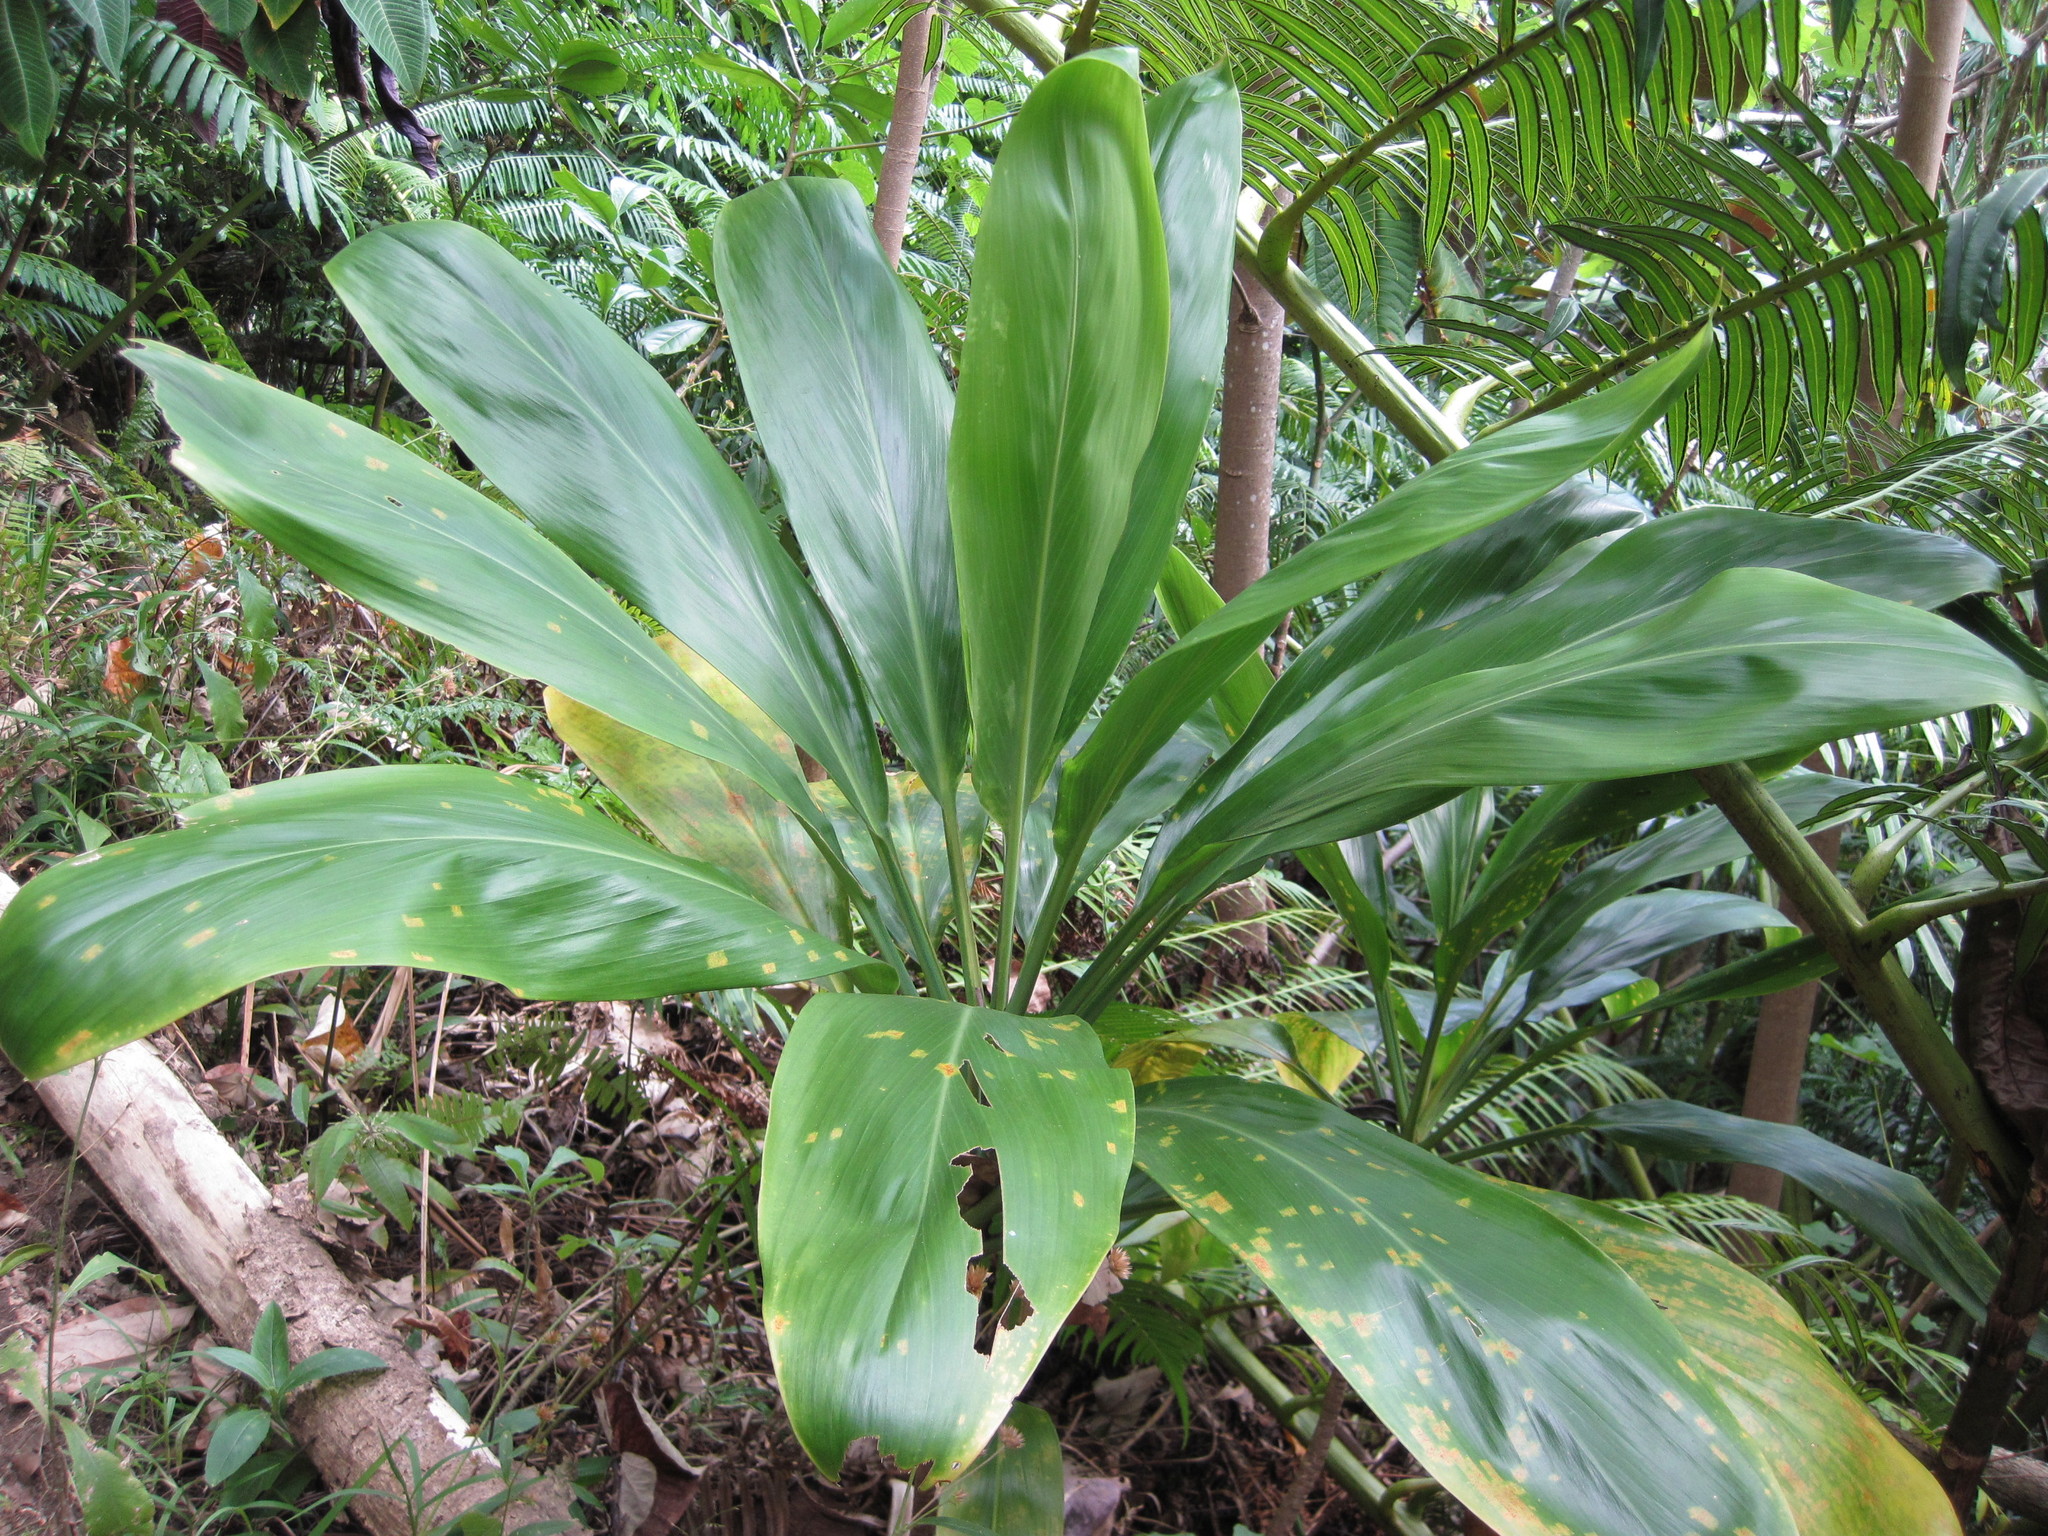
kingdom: Plantae
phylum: Tracheophyta
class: Liliopsida
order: Asparagales
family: Asparagaceae
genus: Cordyline
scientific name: Cordyline fruticosa
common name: Good-luck-plant
